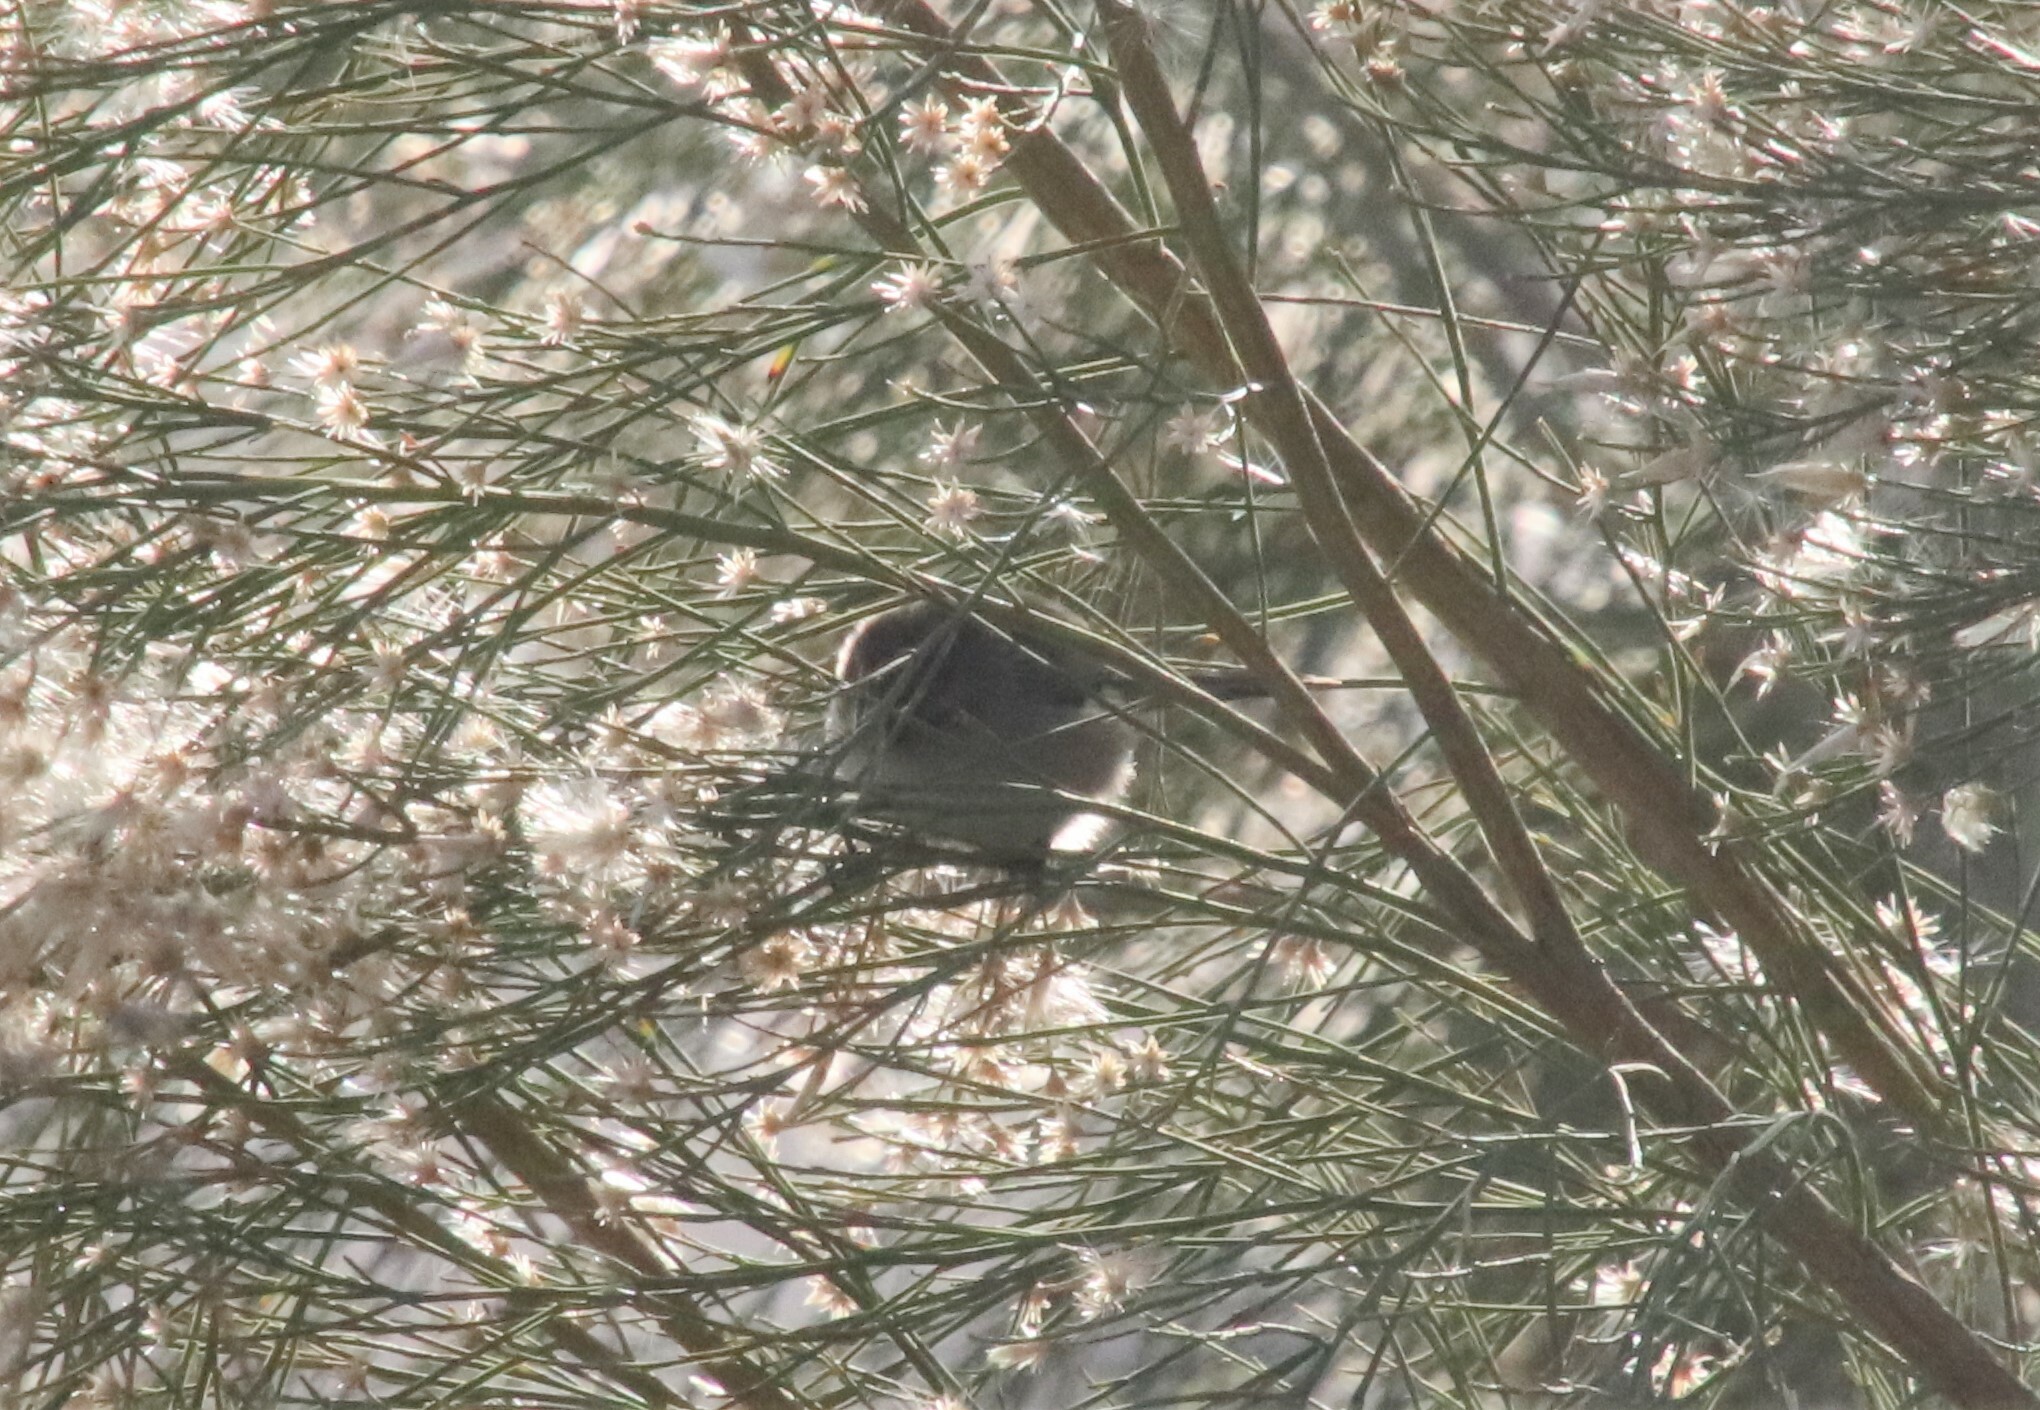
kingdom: Animalia
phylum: Chordata
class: Aves
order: Passeriformes
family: Aegithalidae
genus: Psaltriparus
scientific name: Psaltriparus minimus
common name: American bushtit
